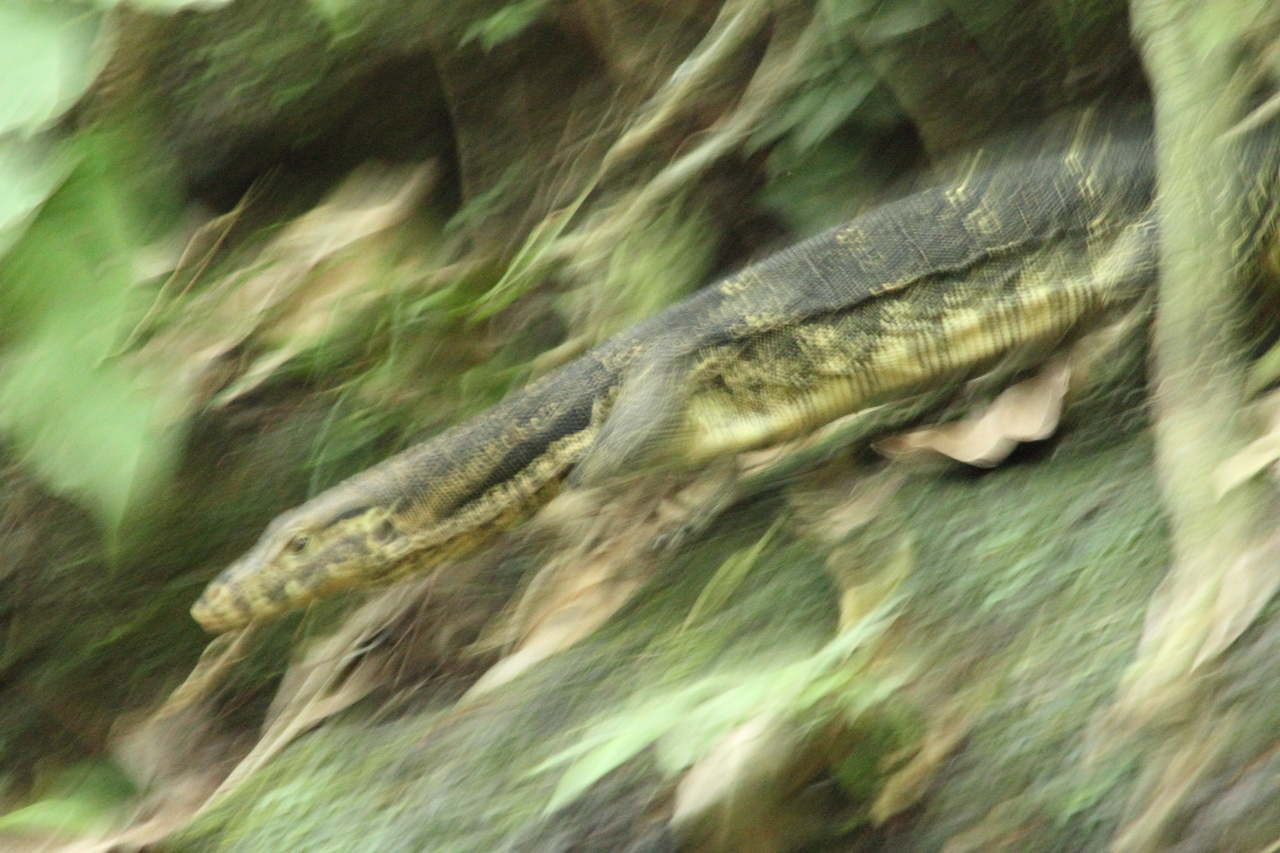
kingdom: Animalia
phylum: Chordata
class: Squamata
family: Varanidae
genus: Varanus
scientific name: Varanus salvator
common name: Common water monitor
